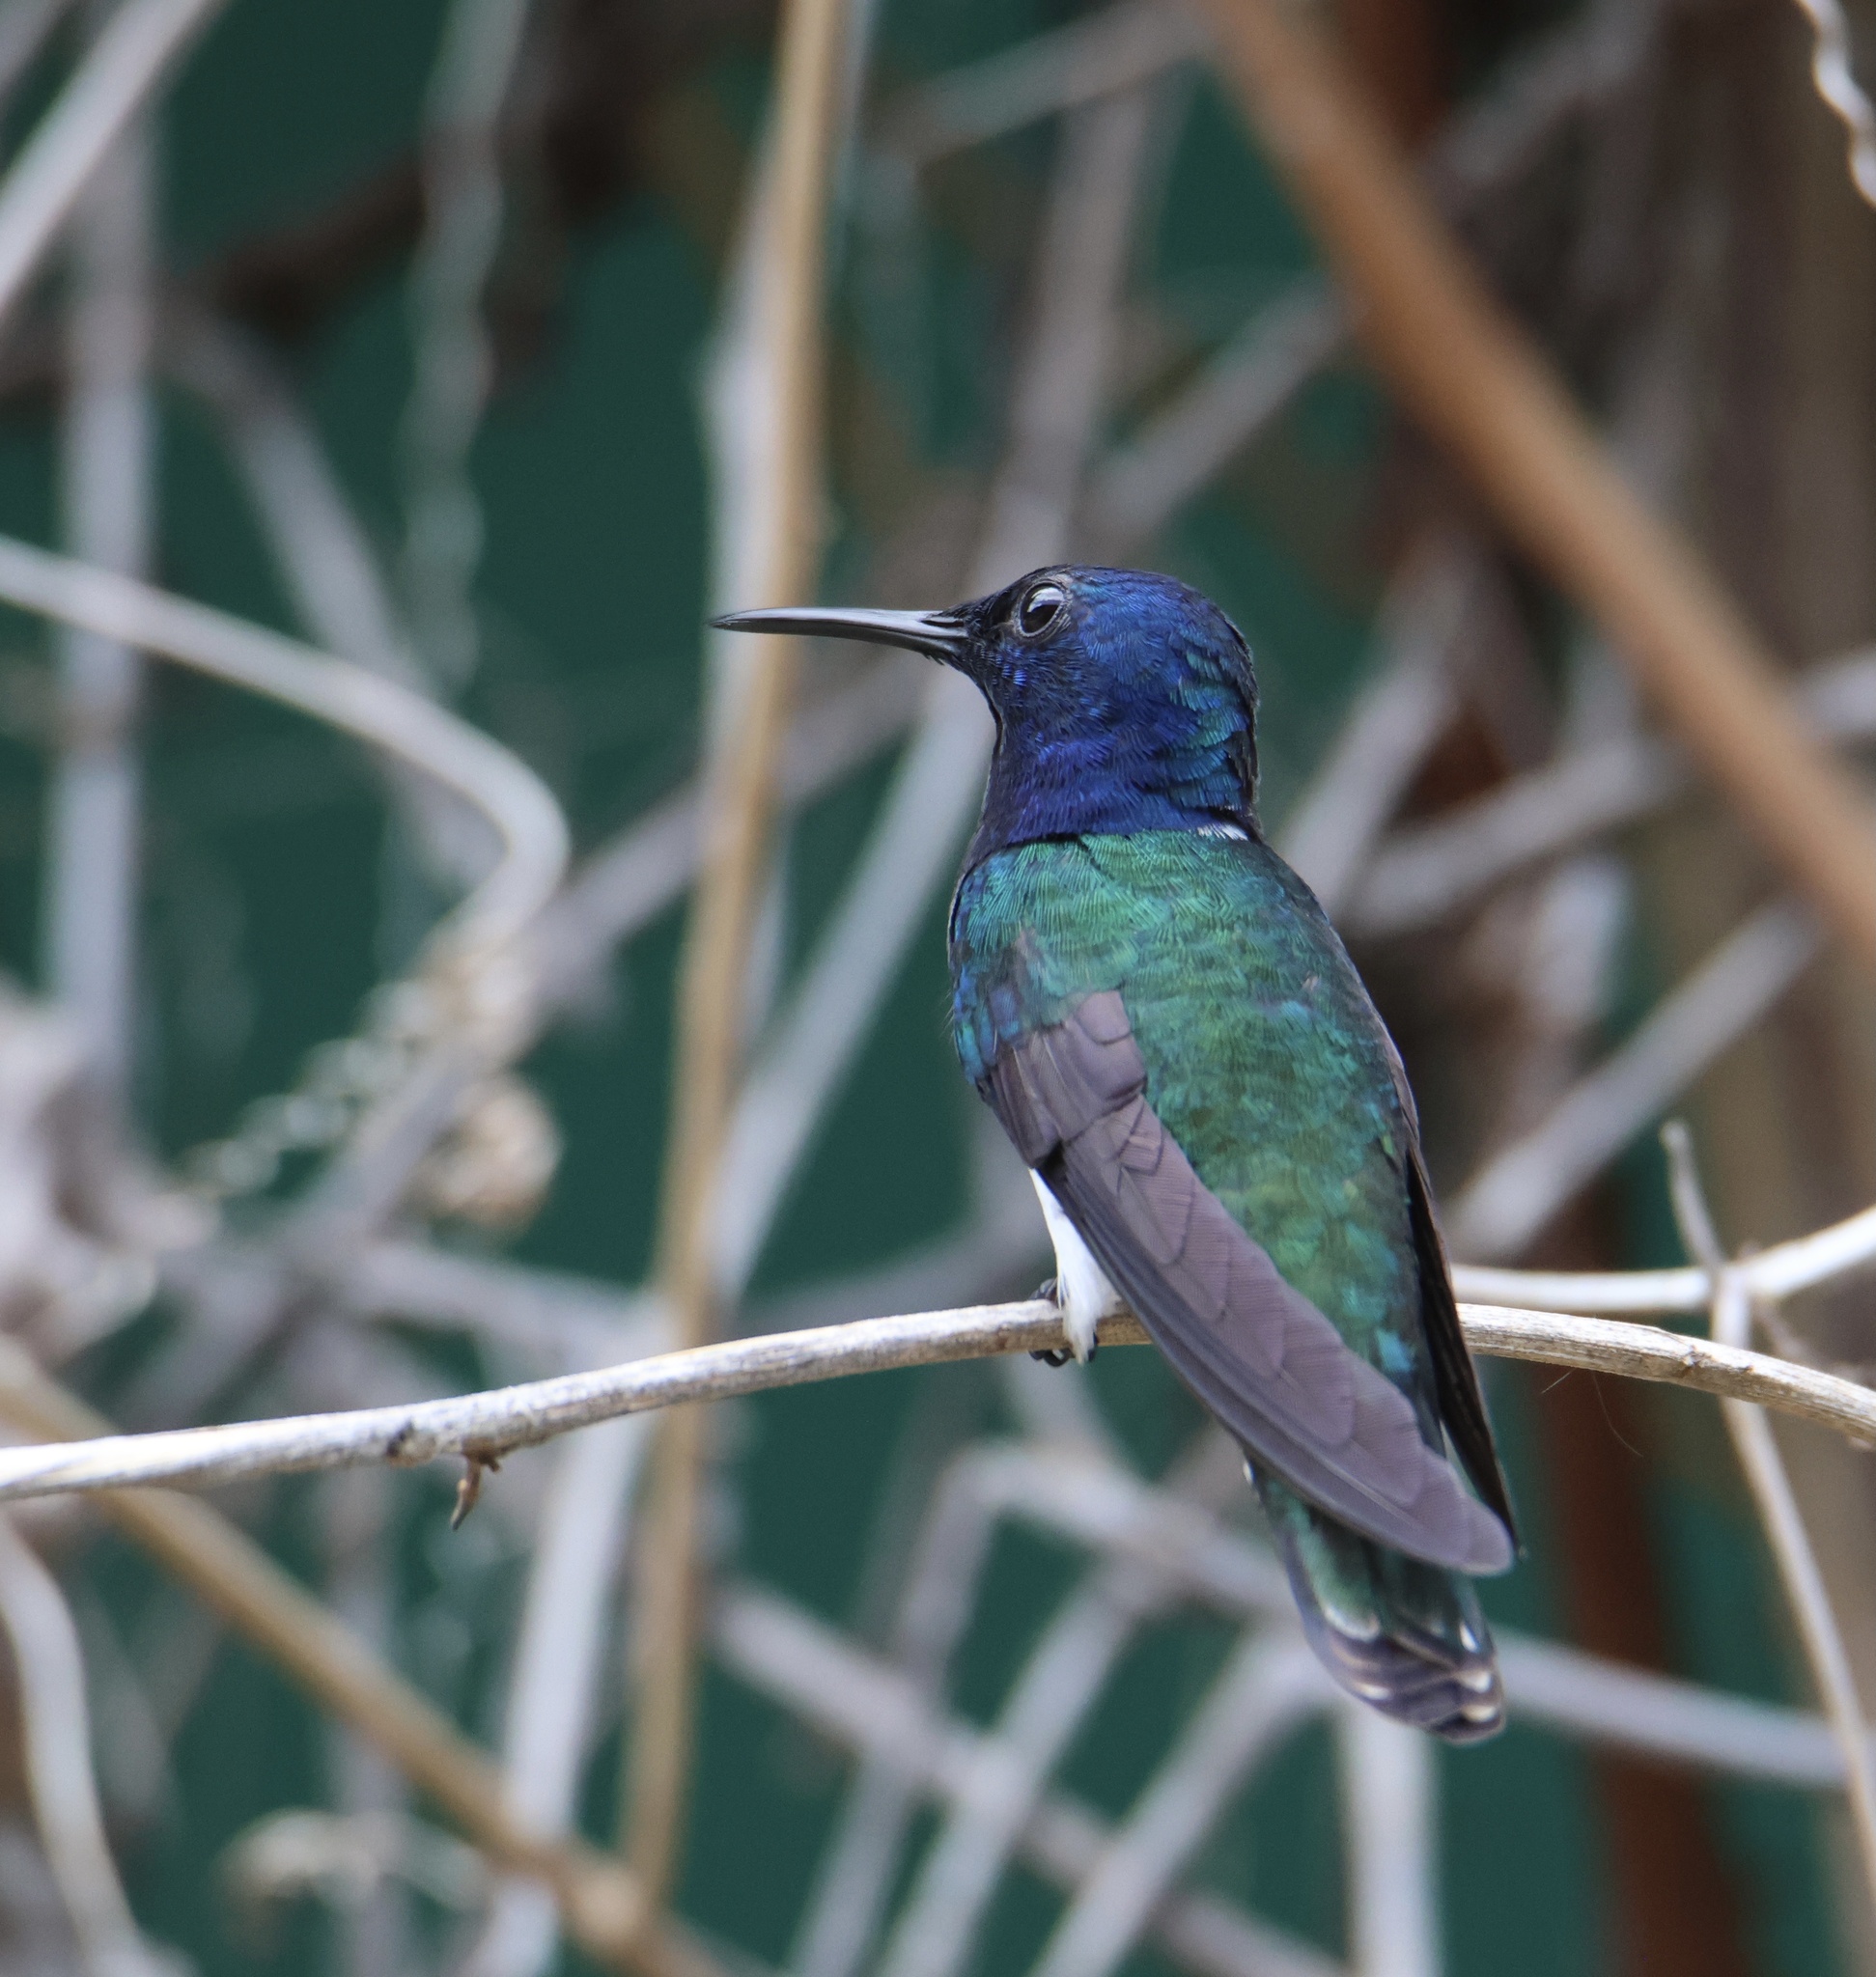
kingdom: Animalia
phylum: Chordata
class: Aves
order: Apodiformes
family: Trochilidae
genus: Florisuga
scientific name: Florisuga mellivora
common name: White-necked jacobin
